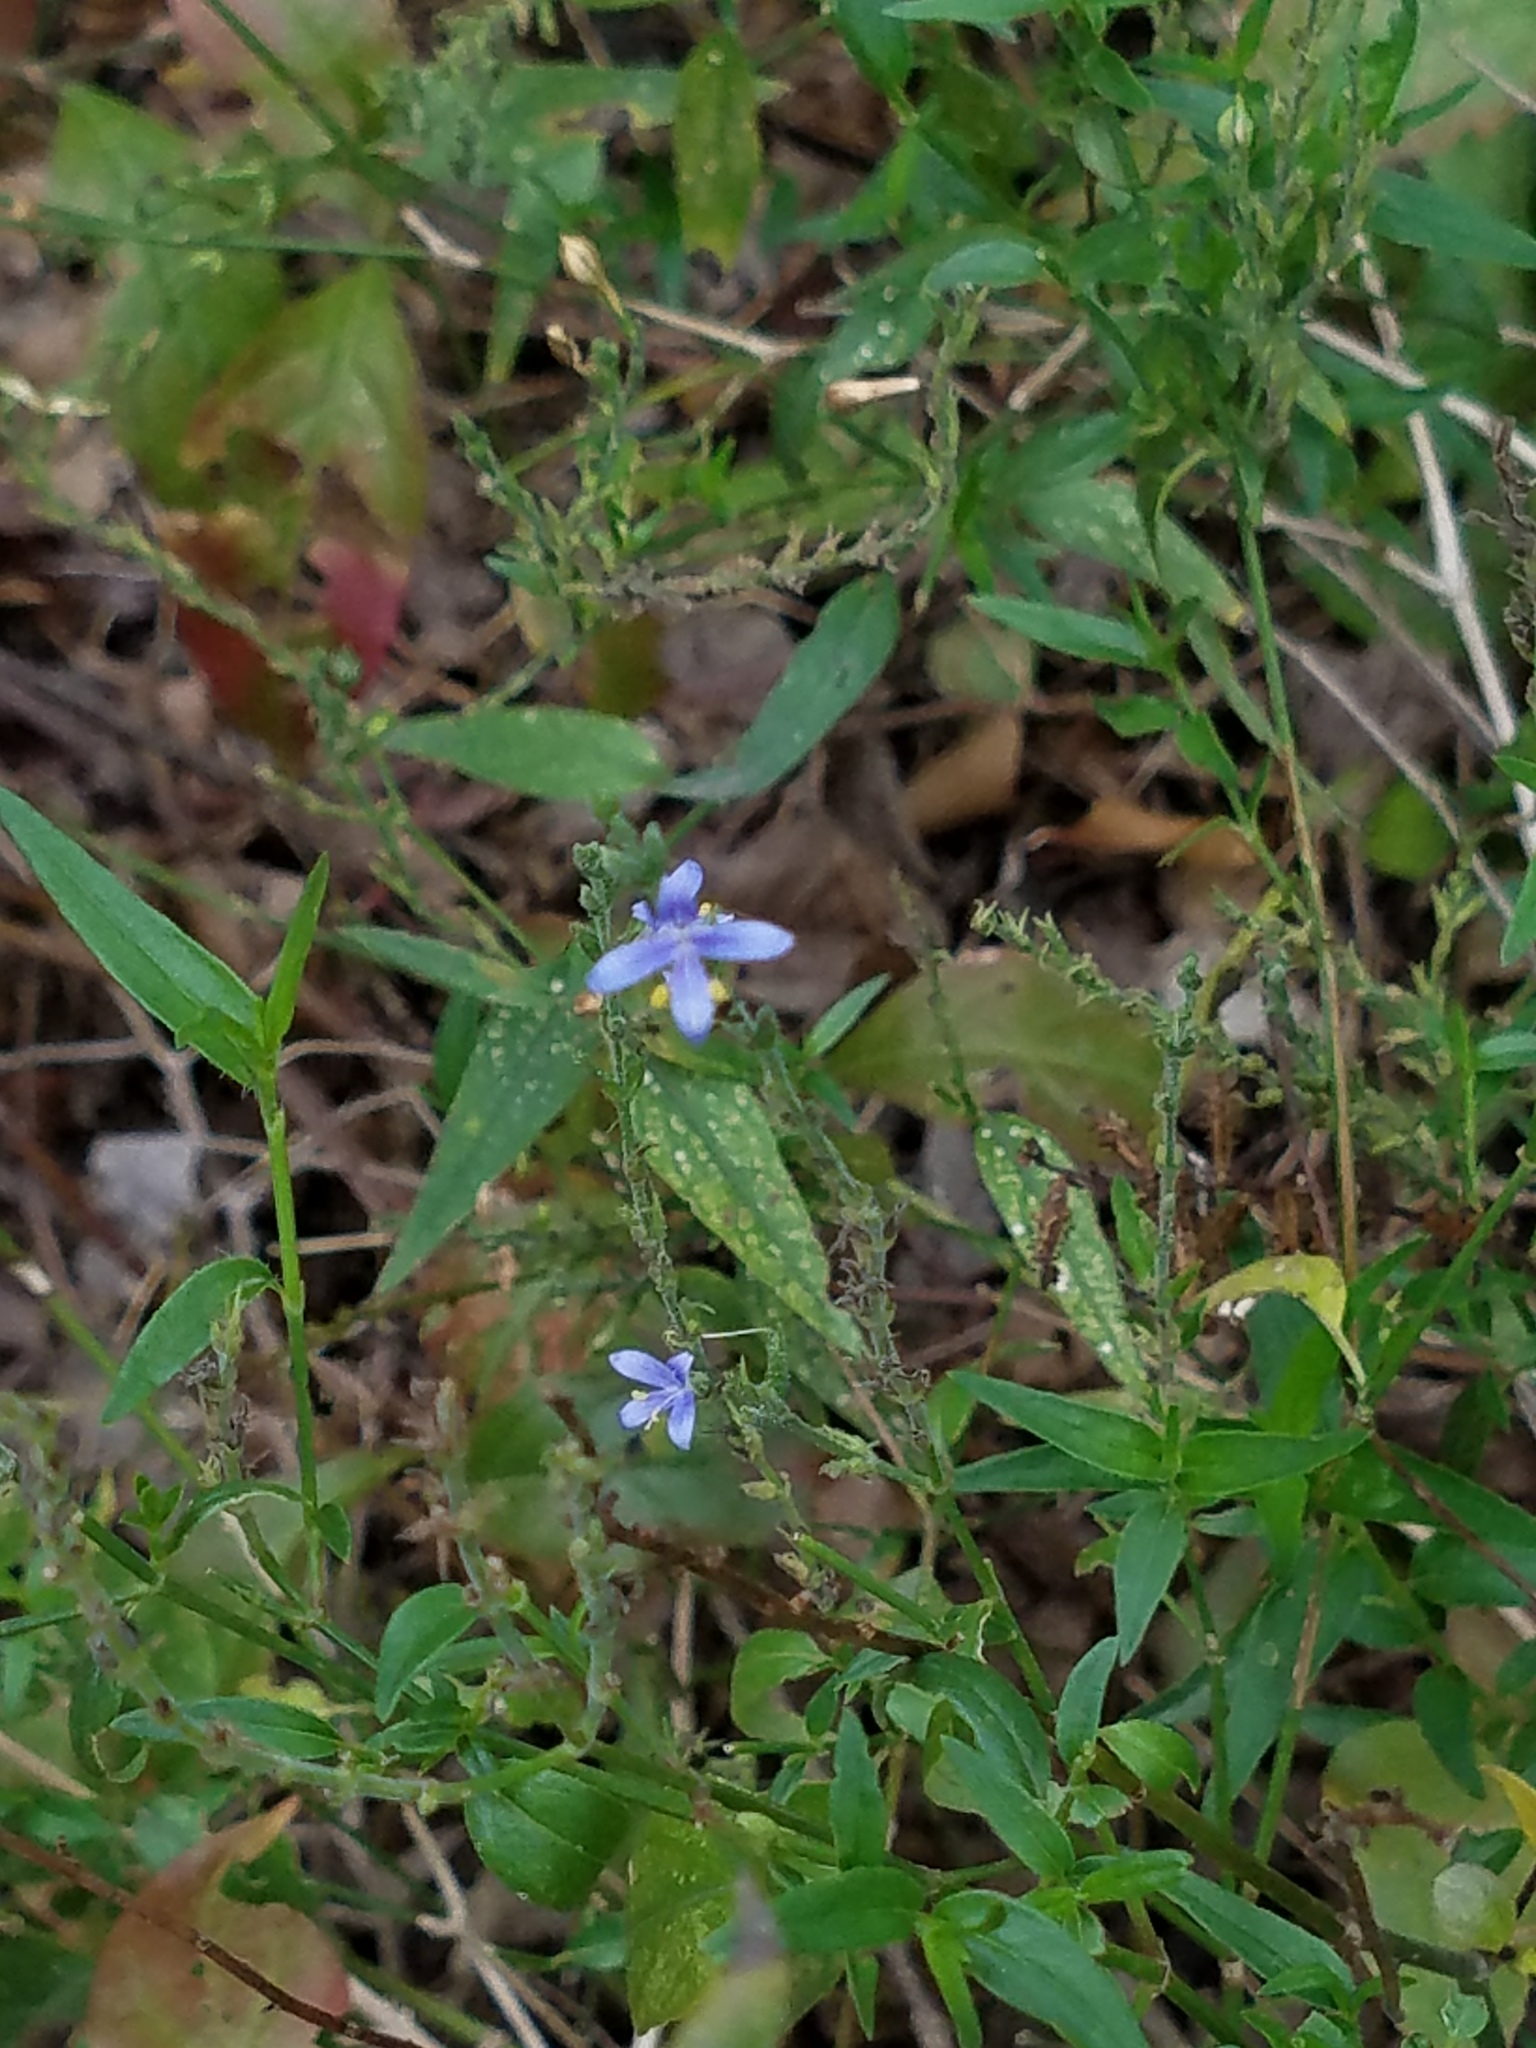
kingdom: Plantae
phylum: Tracheophyta
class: Magnoliopsida
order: Lamiales
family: Acanthaceae
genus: Carlowrightia
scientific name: Carlowrightia parviflora
